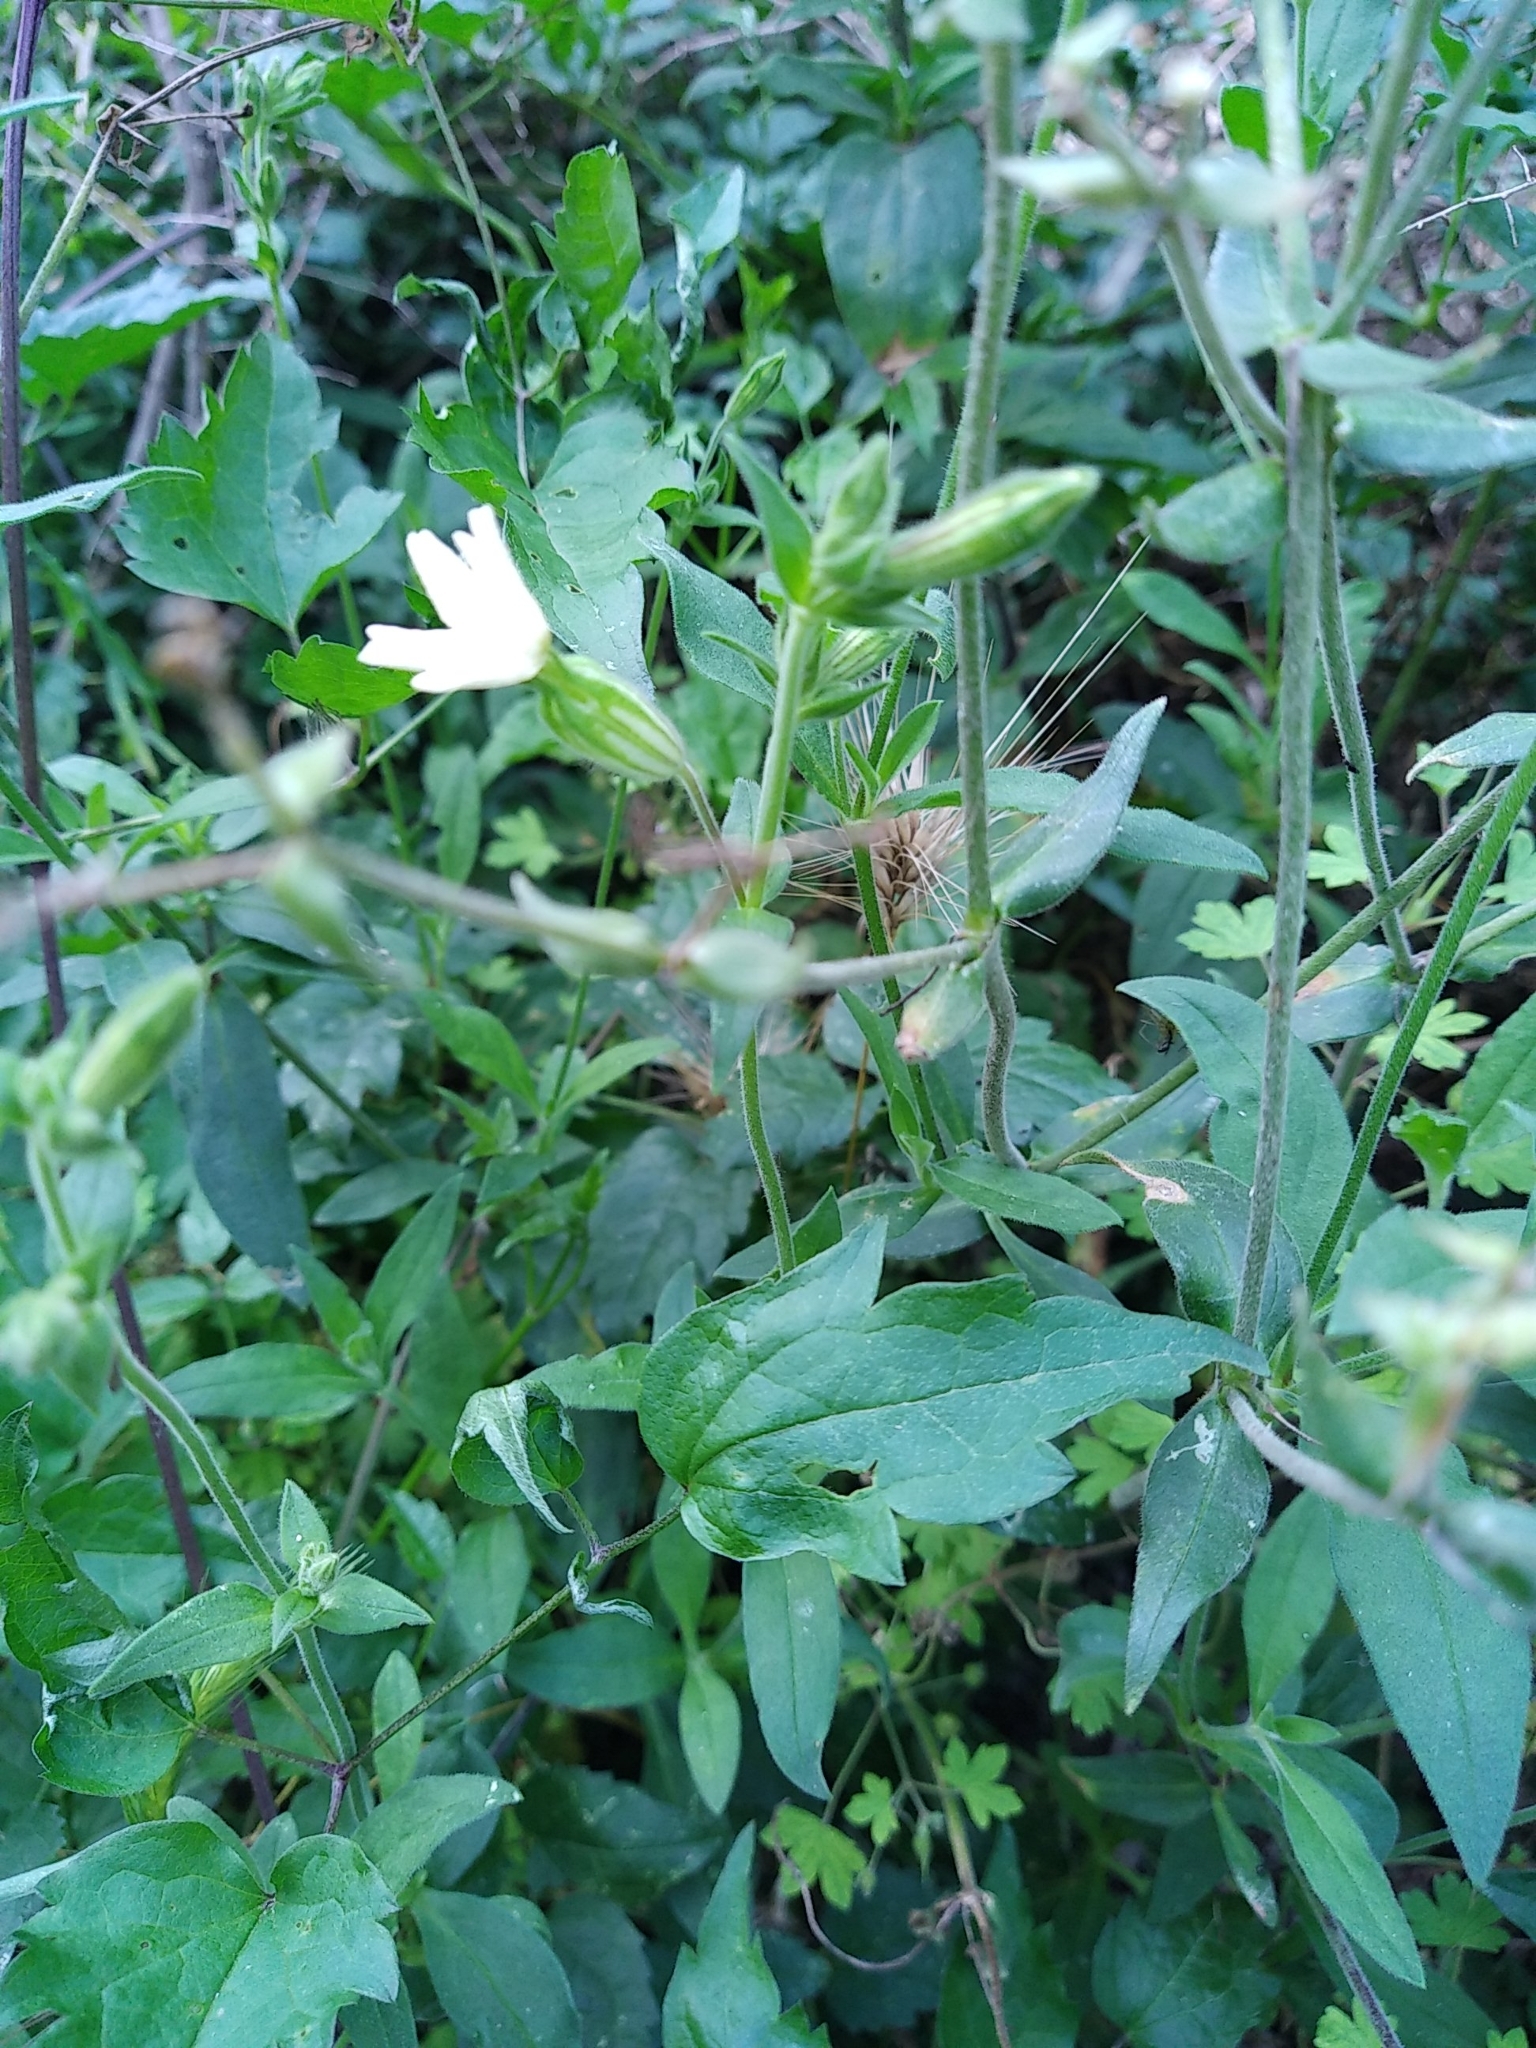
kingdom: Plantae
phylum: Tracheophyta
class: Magnoliopsida
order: Caryophyllales
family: Caryophyllaceae
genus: Silene
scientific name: Silene latifolia
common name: White campion
